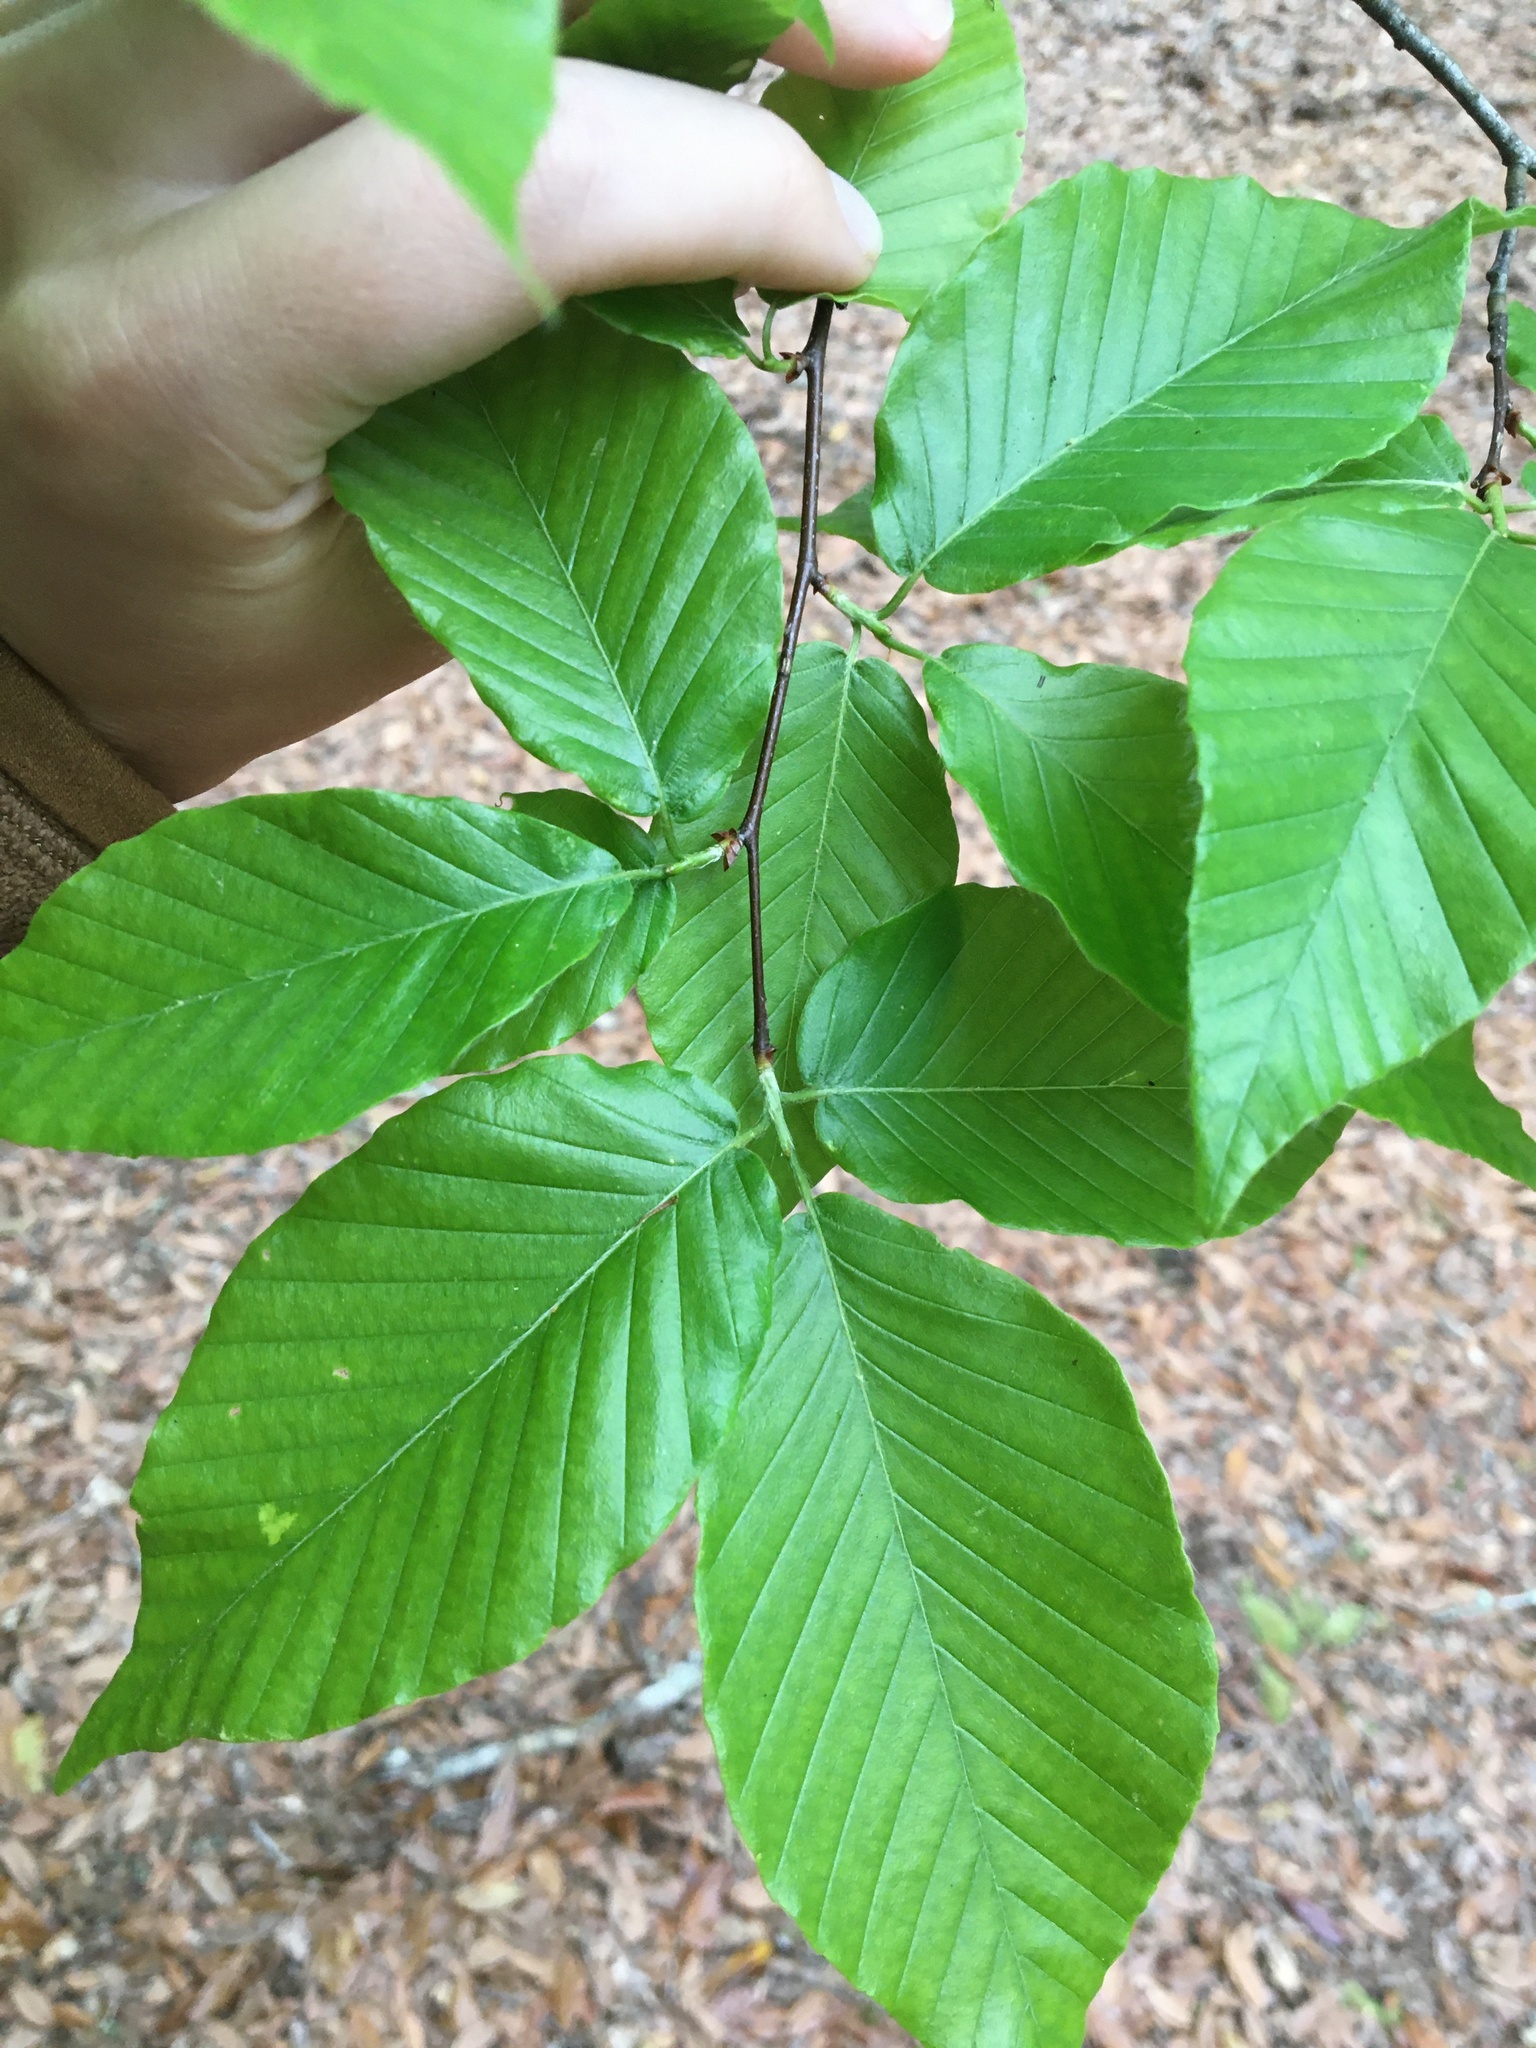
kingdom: Plantae
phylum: Tracheophyta
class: Magnoliopsida
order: Fagales
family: Fagaceae
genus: Fagus
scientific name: Fagus grandifolia
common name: American beech
